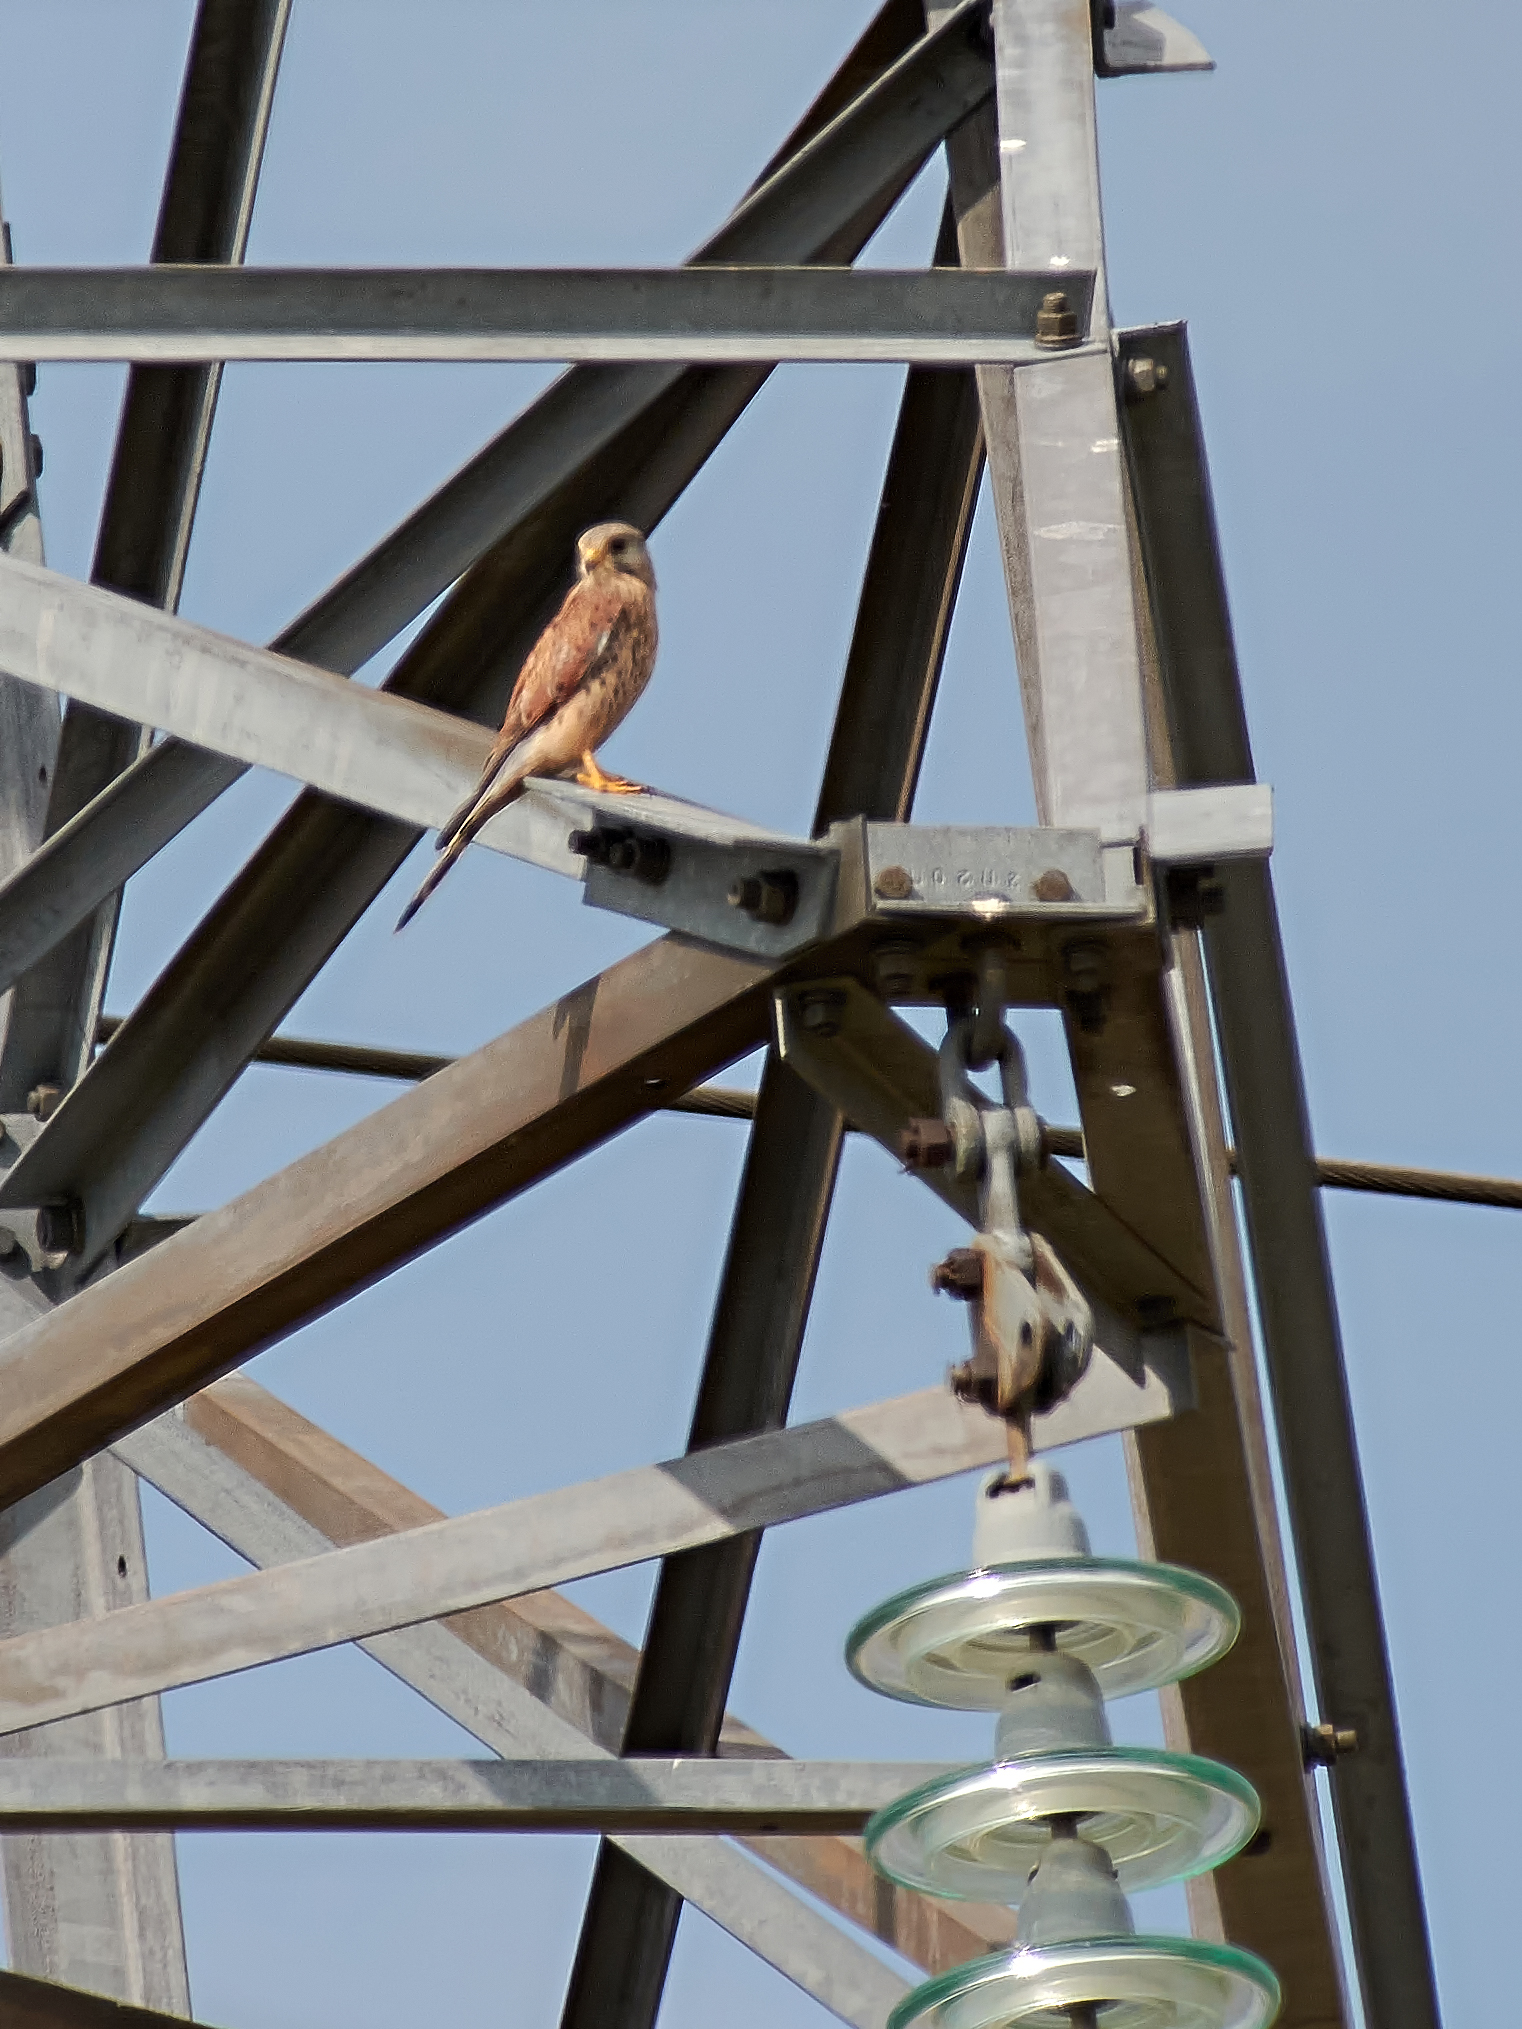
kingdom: Animalia
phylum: Chordata
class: Aves
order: Falconiformes
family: Falconidae
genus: Falco
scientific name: Falco tinnunculus
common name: Common kestrel
